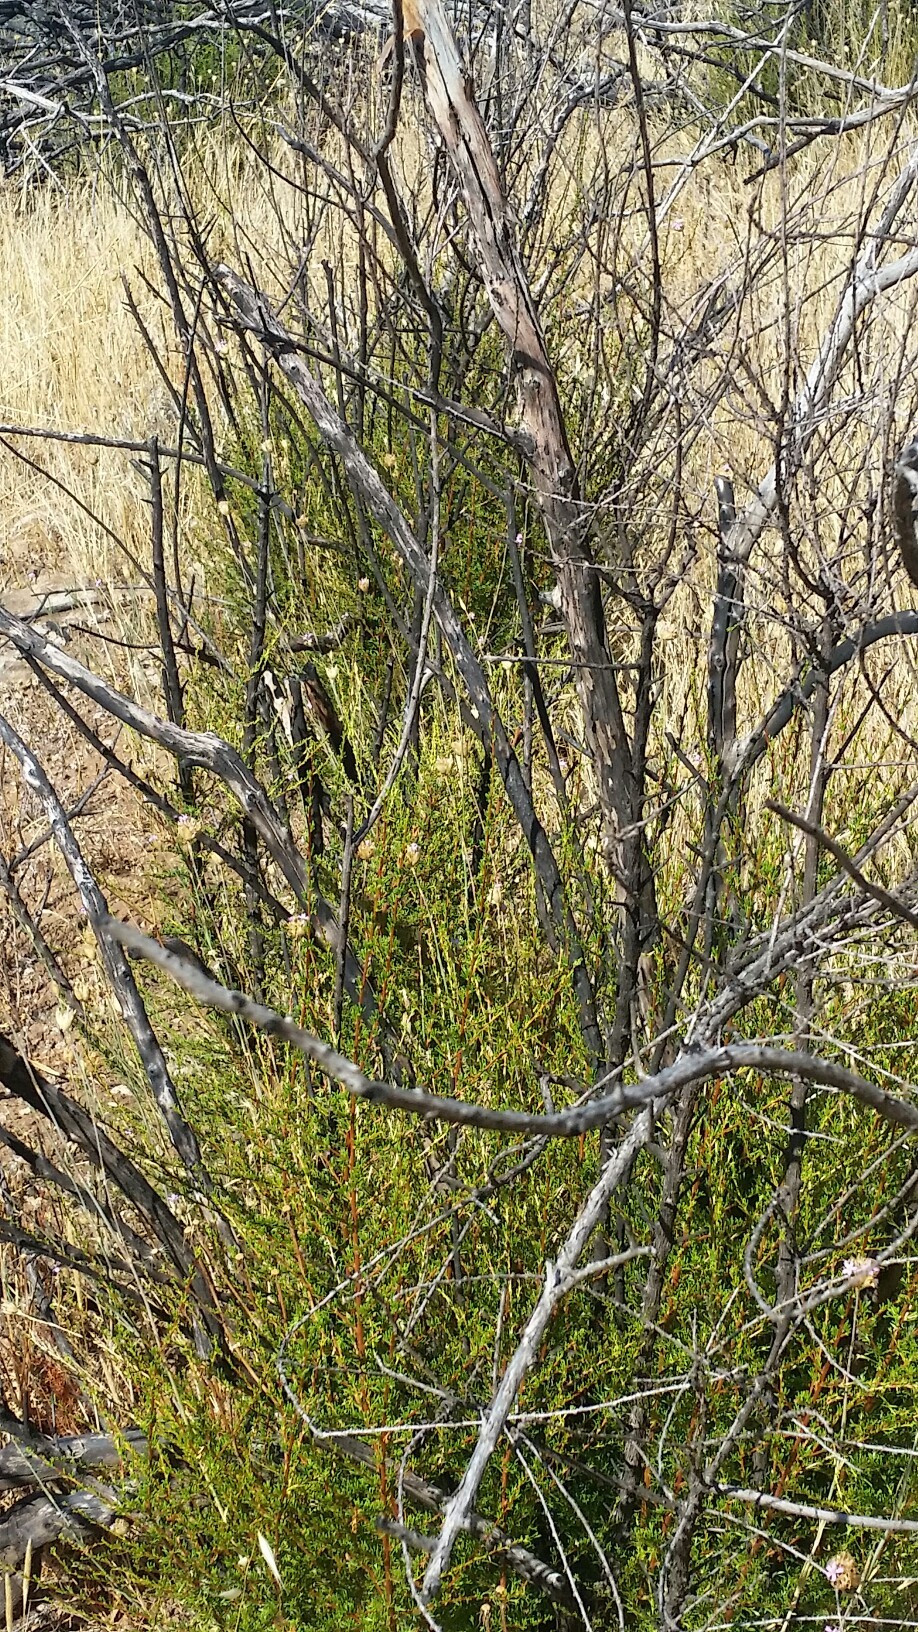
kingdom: Plantae
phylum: Tracheophyta
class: Magnoliopsida
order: Rosales
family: Rosaceae
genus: Adenostoma
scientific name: Adenostoma fasciculatum
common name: Chamise
